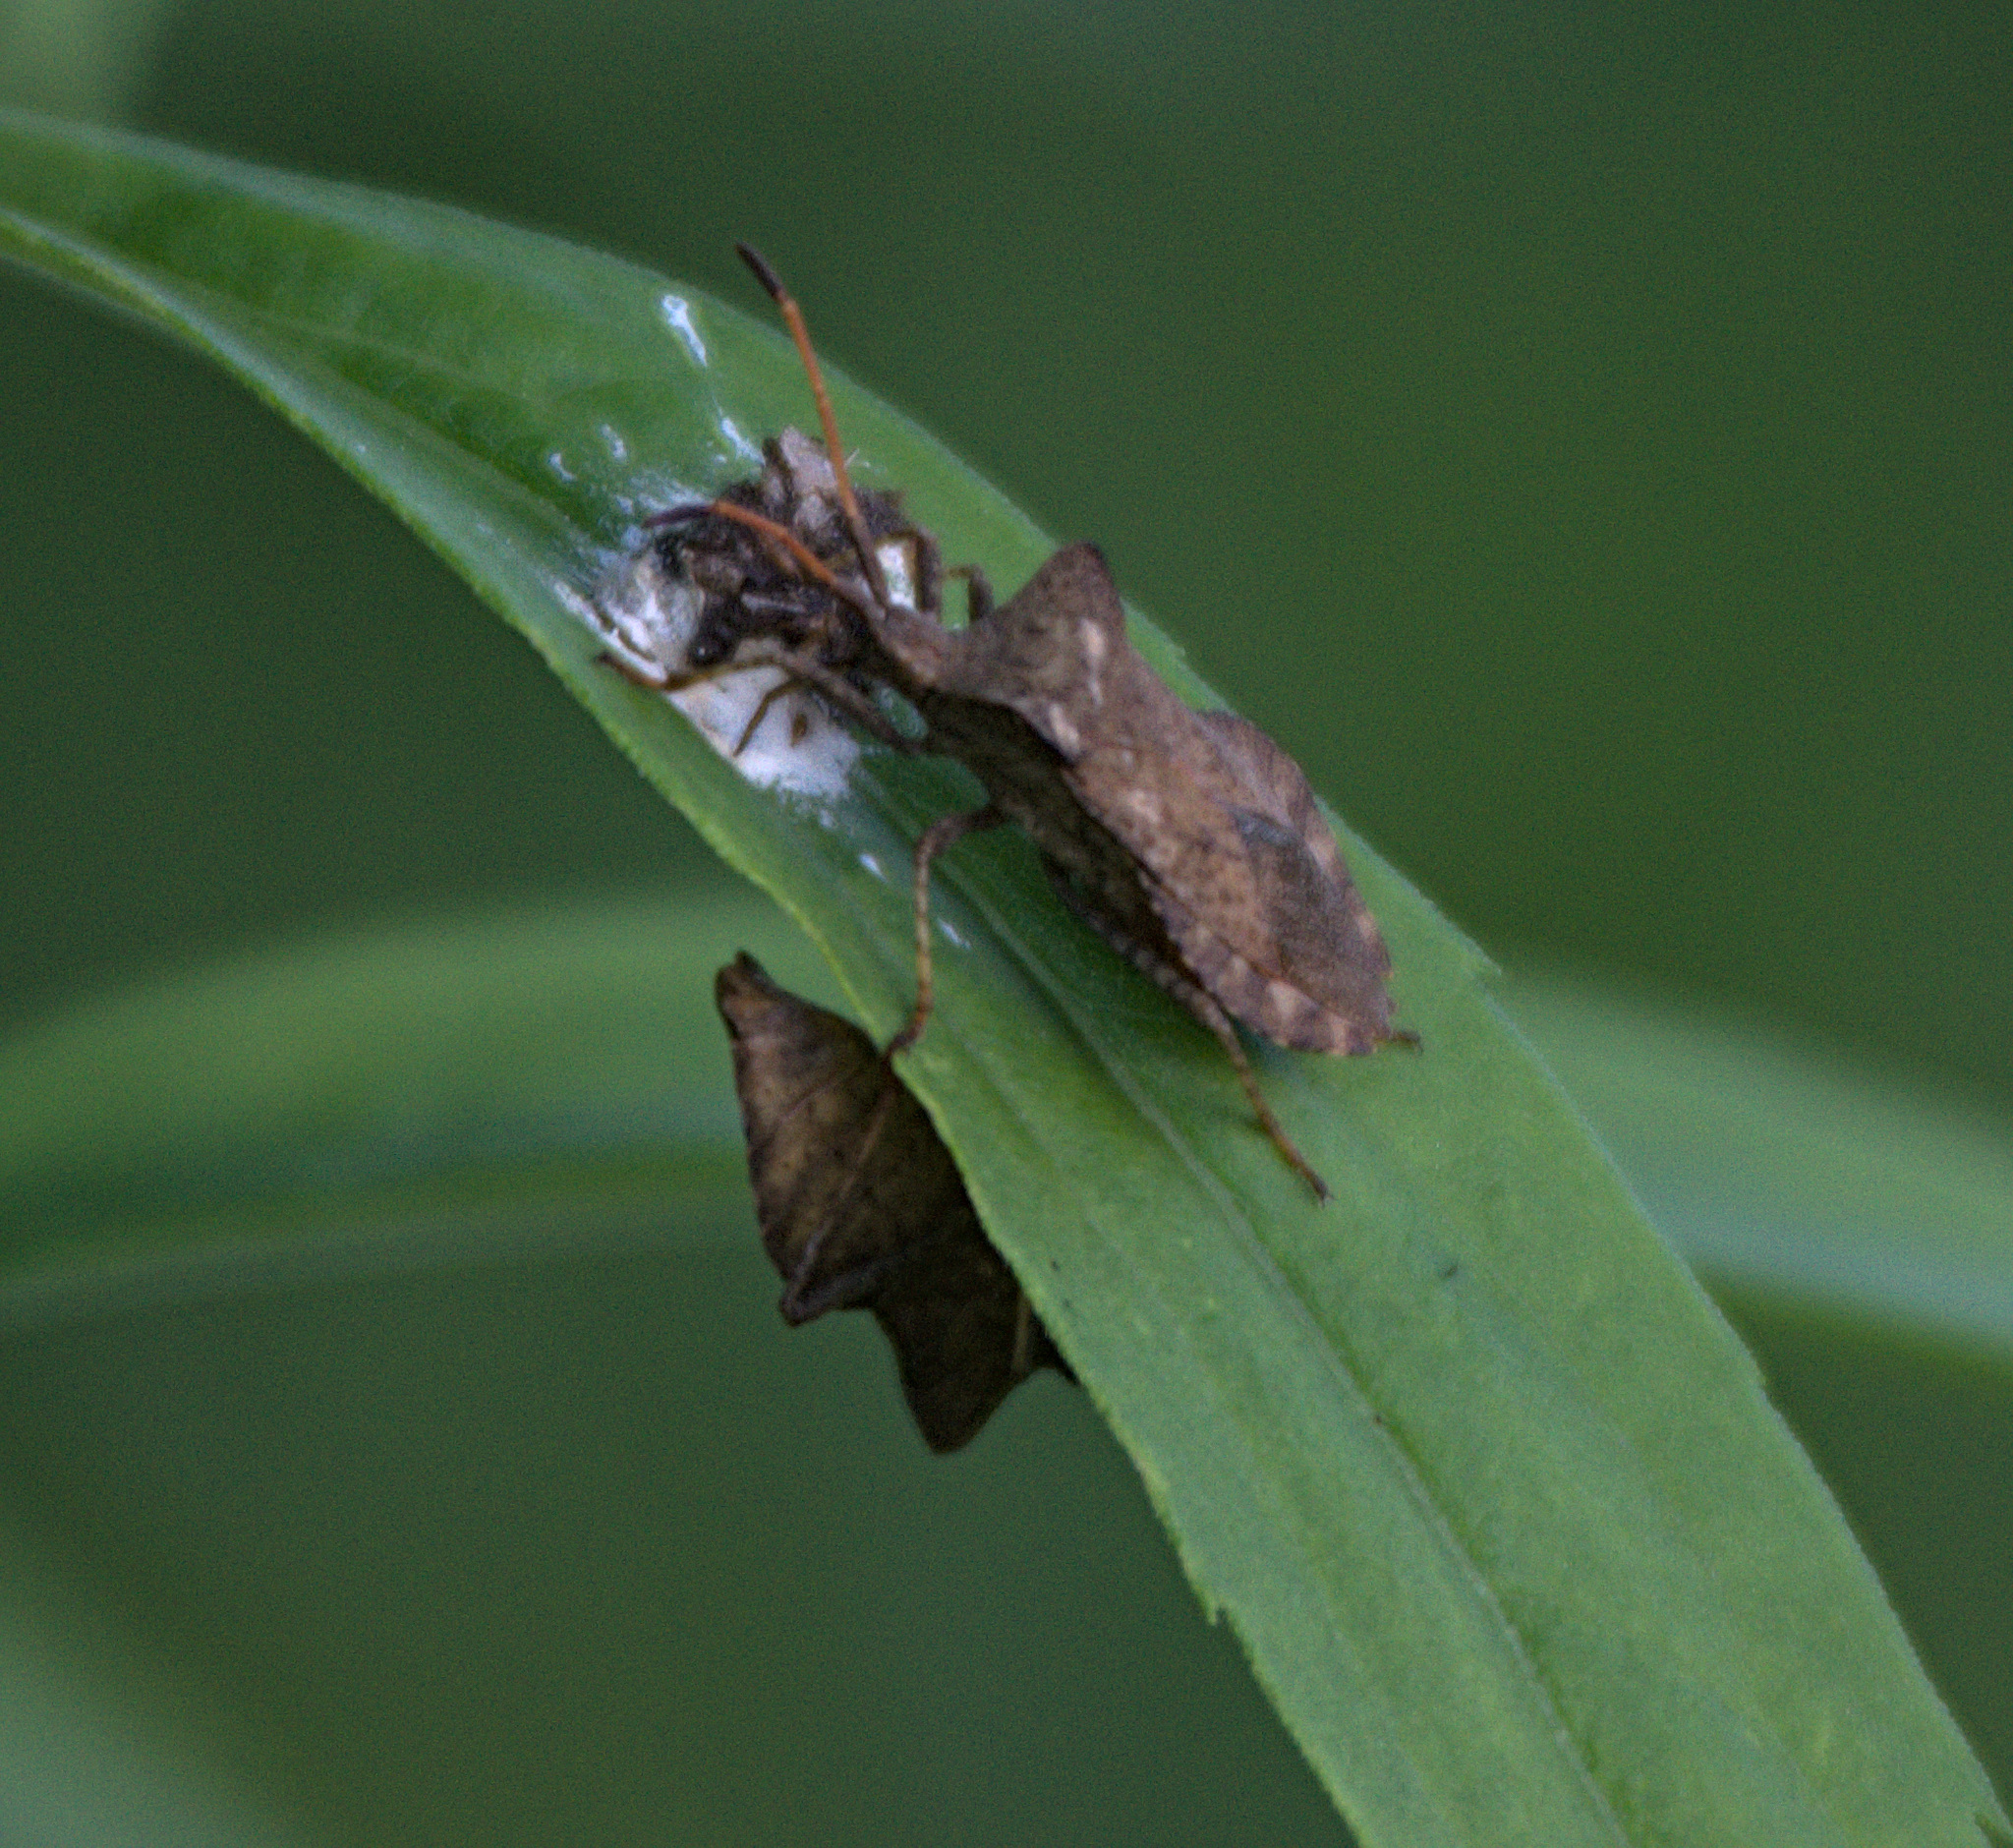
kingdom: Animalia
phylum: Arthropoda
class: Insecta
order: Hemiptera
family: Coreidae
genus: Coreus
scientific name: Coreus marginatus
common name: Dock bug
